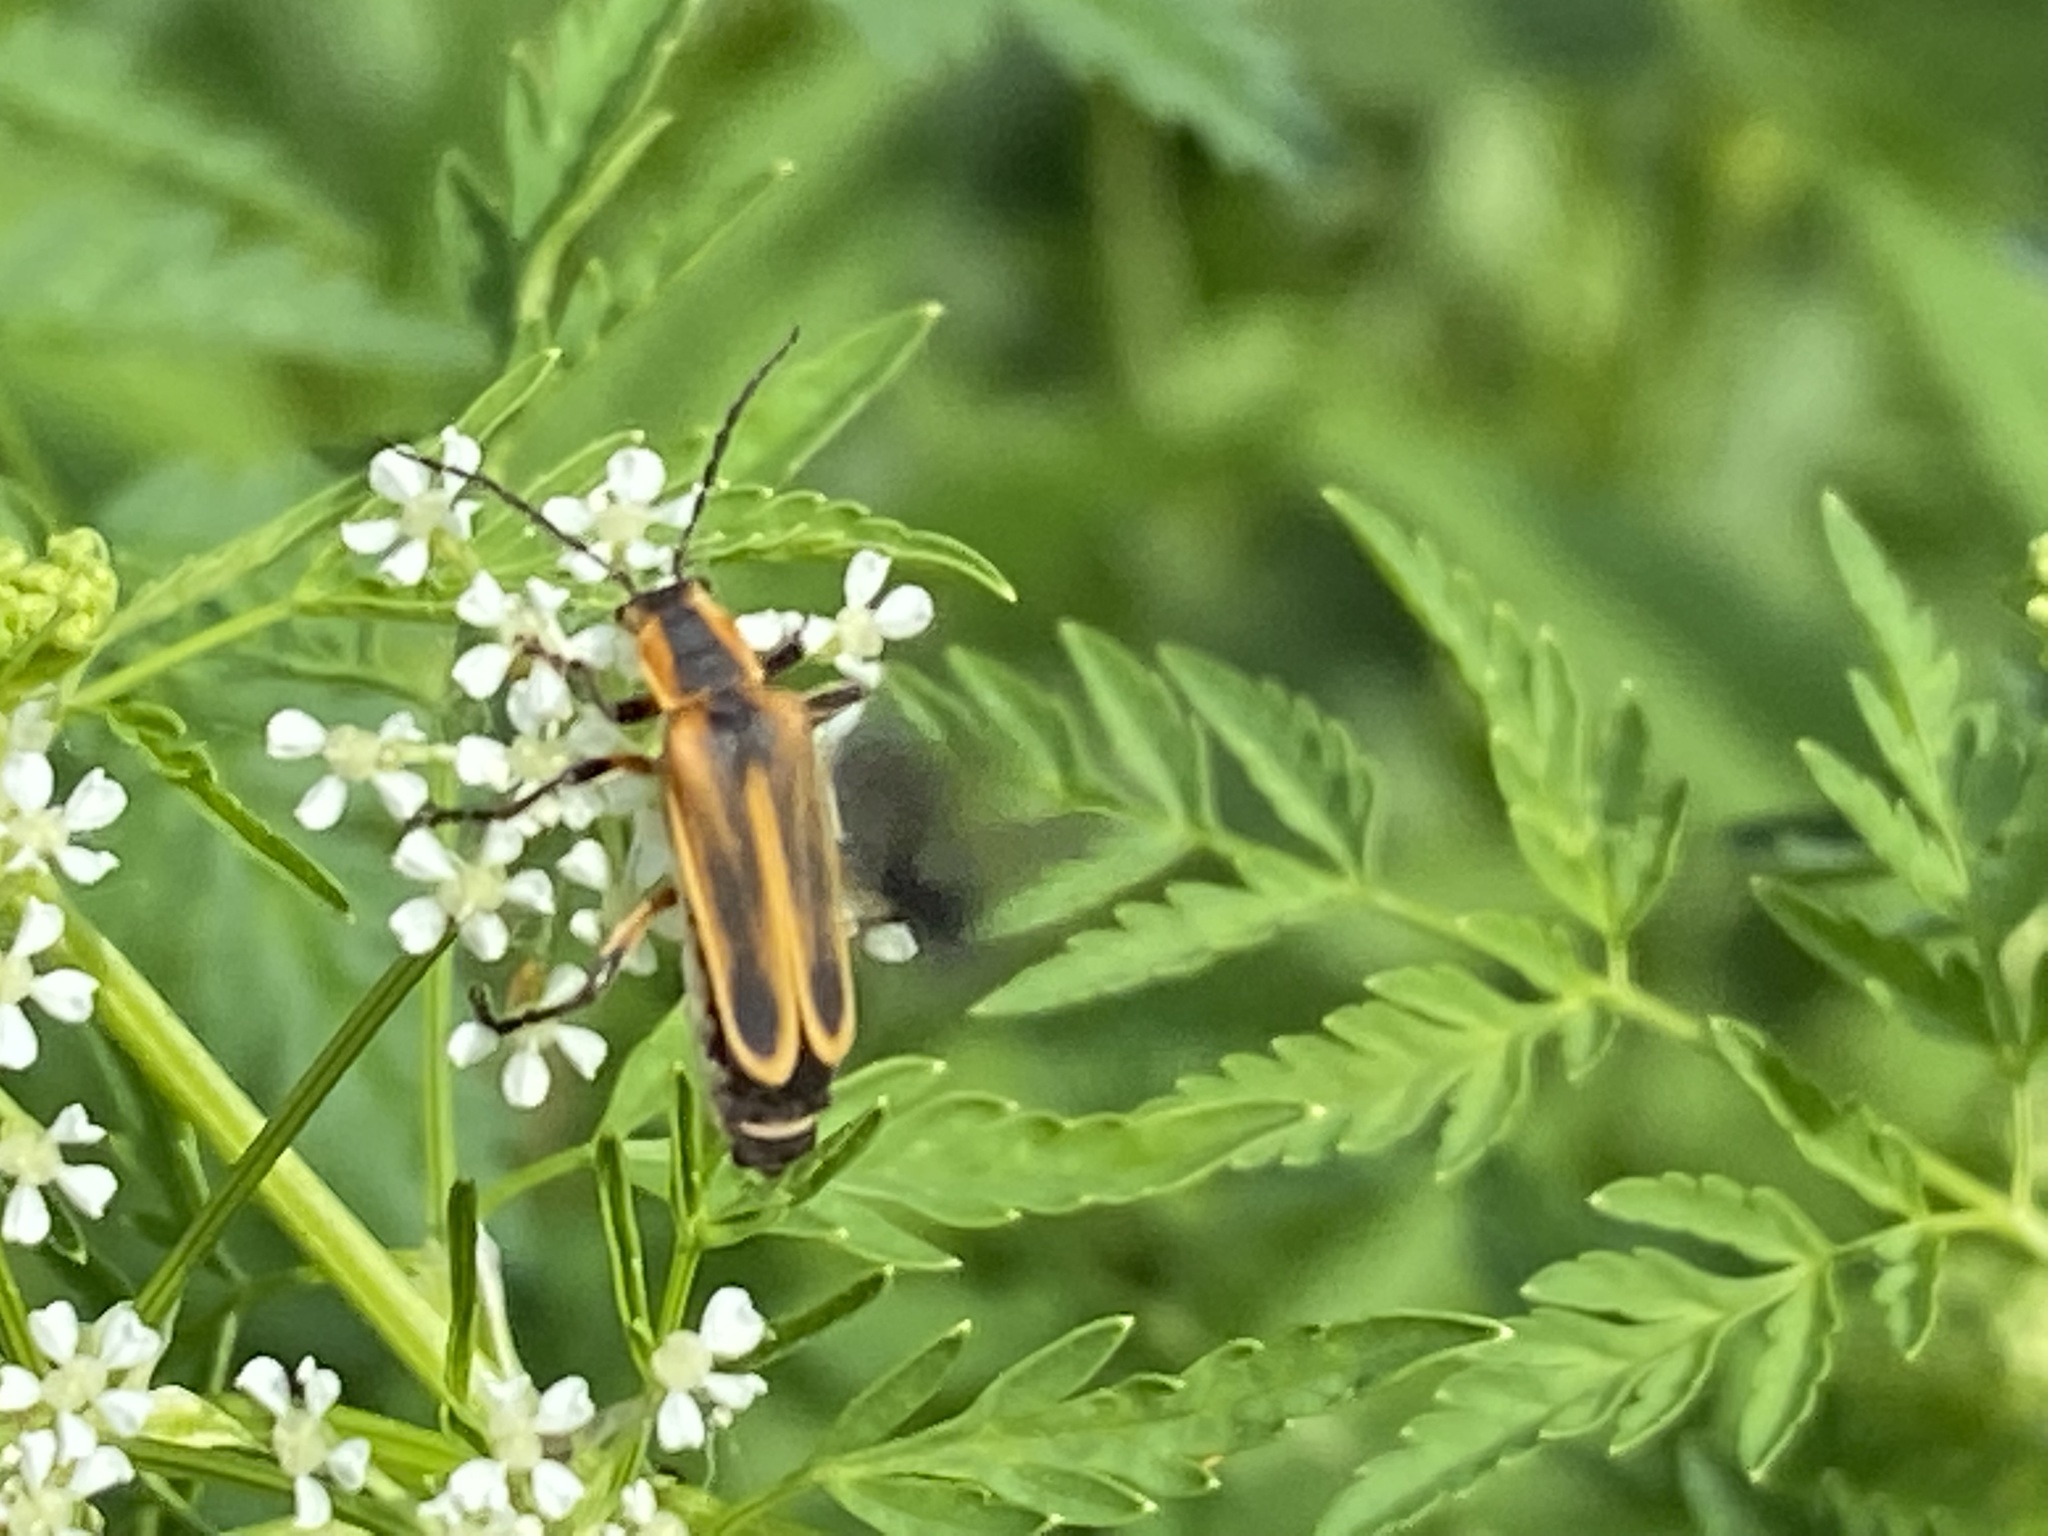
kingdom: Animalia
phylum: Arthropoda
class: Insecta
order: Coleoptera
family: Cantharidae
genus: Chauliognathus
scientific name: Chauliognathus marginatus
